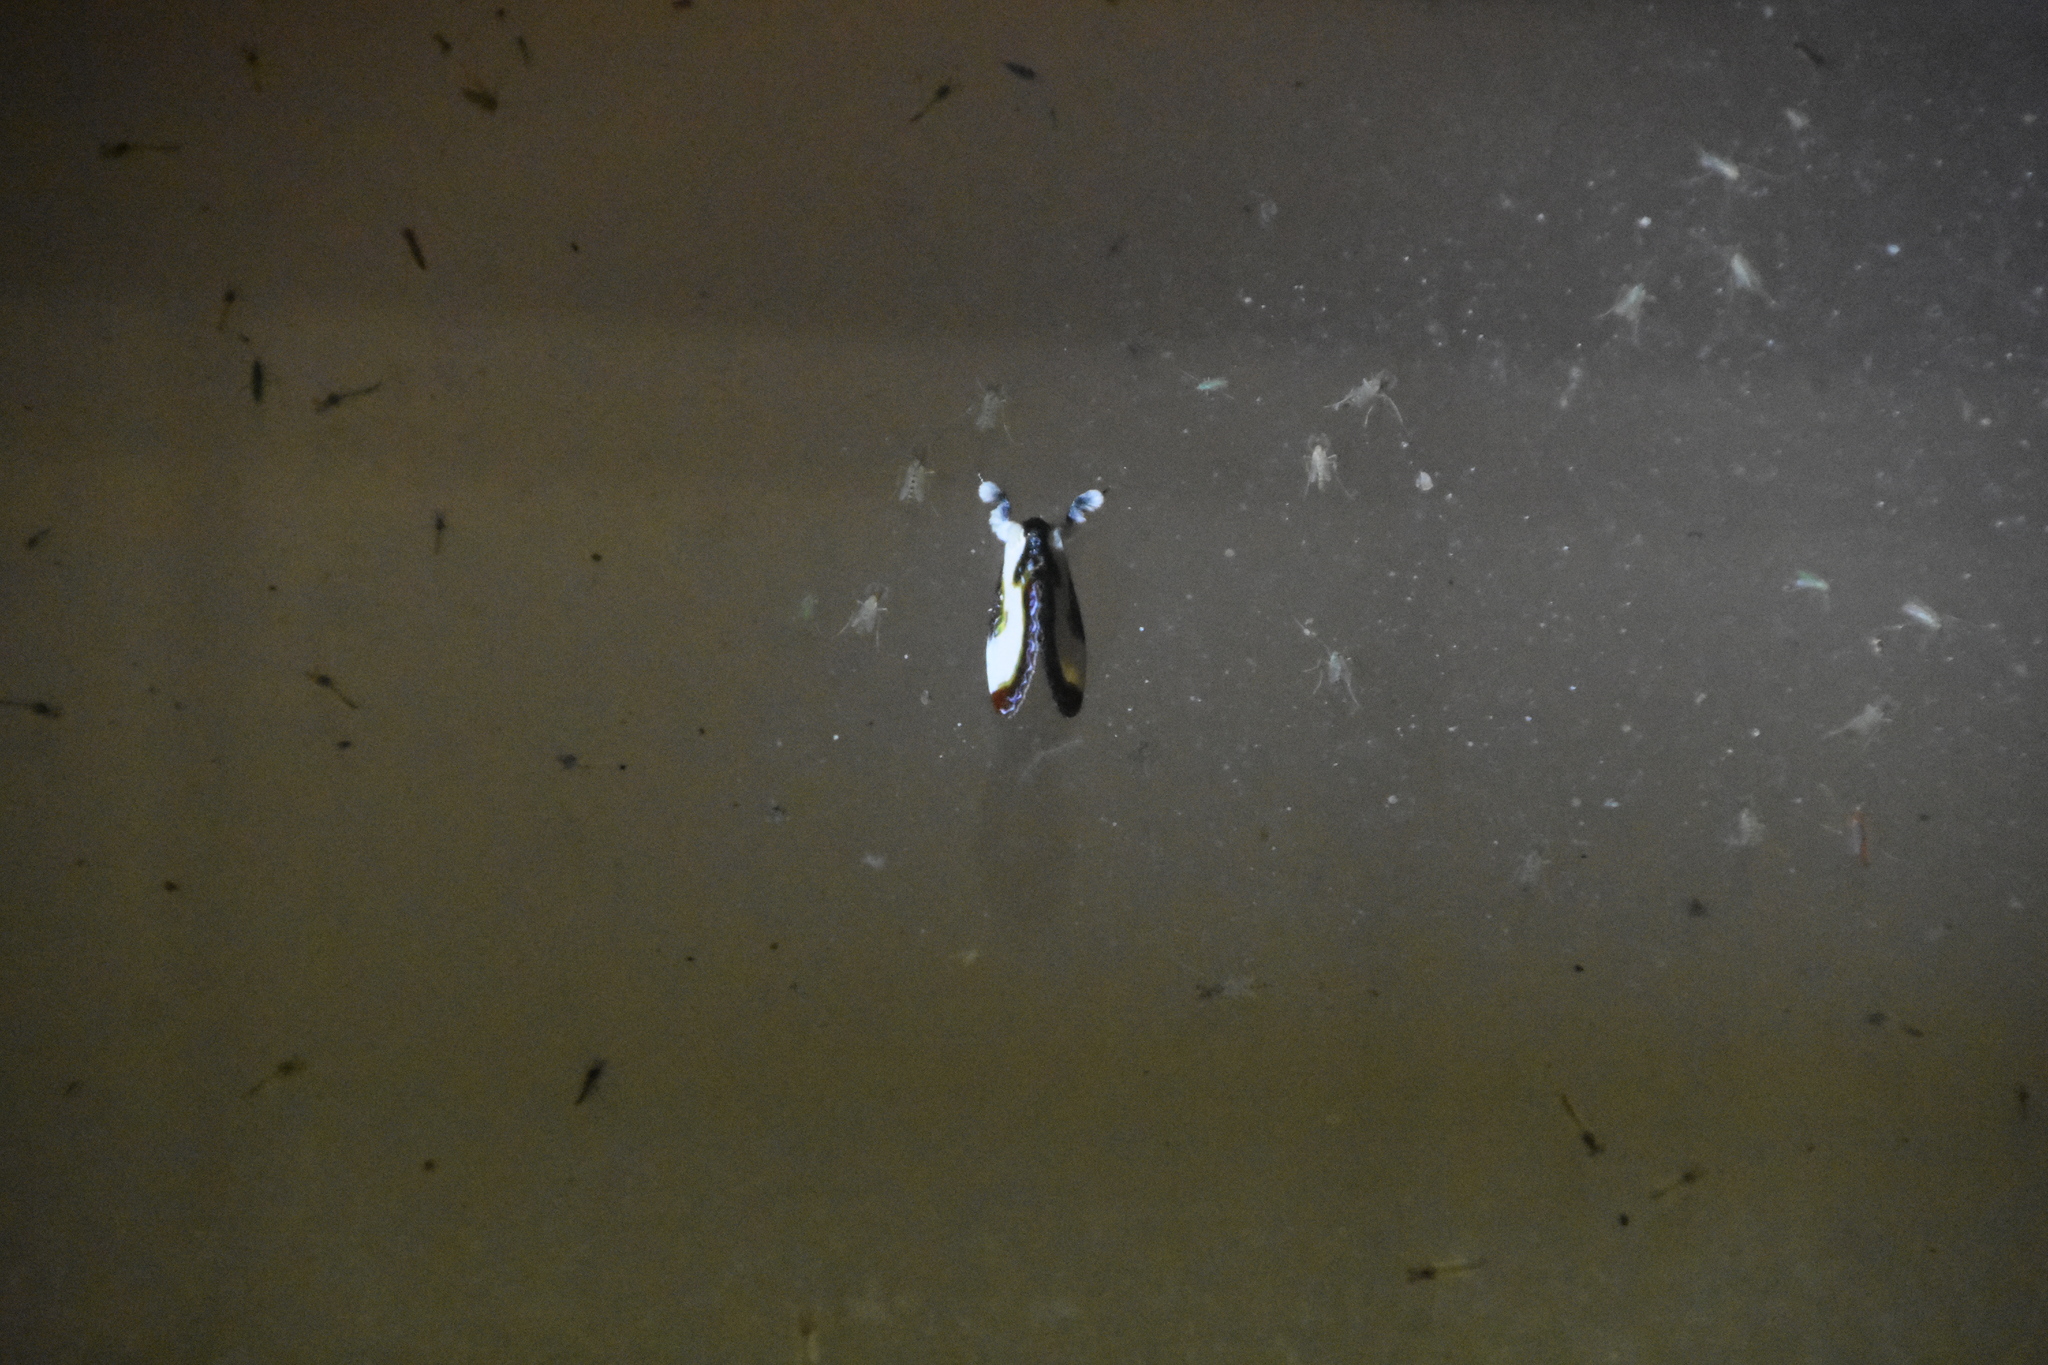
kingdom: Animalia
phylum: Arthropoda
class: Insecta
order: Lepidoptera
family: Noctuidae
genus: Eudryas
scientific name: Eudryas grata
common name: Beautiful wood-nymph
